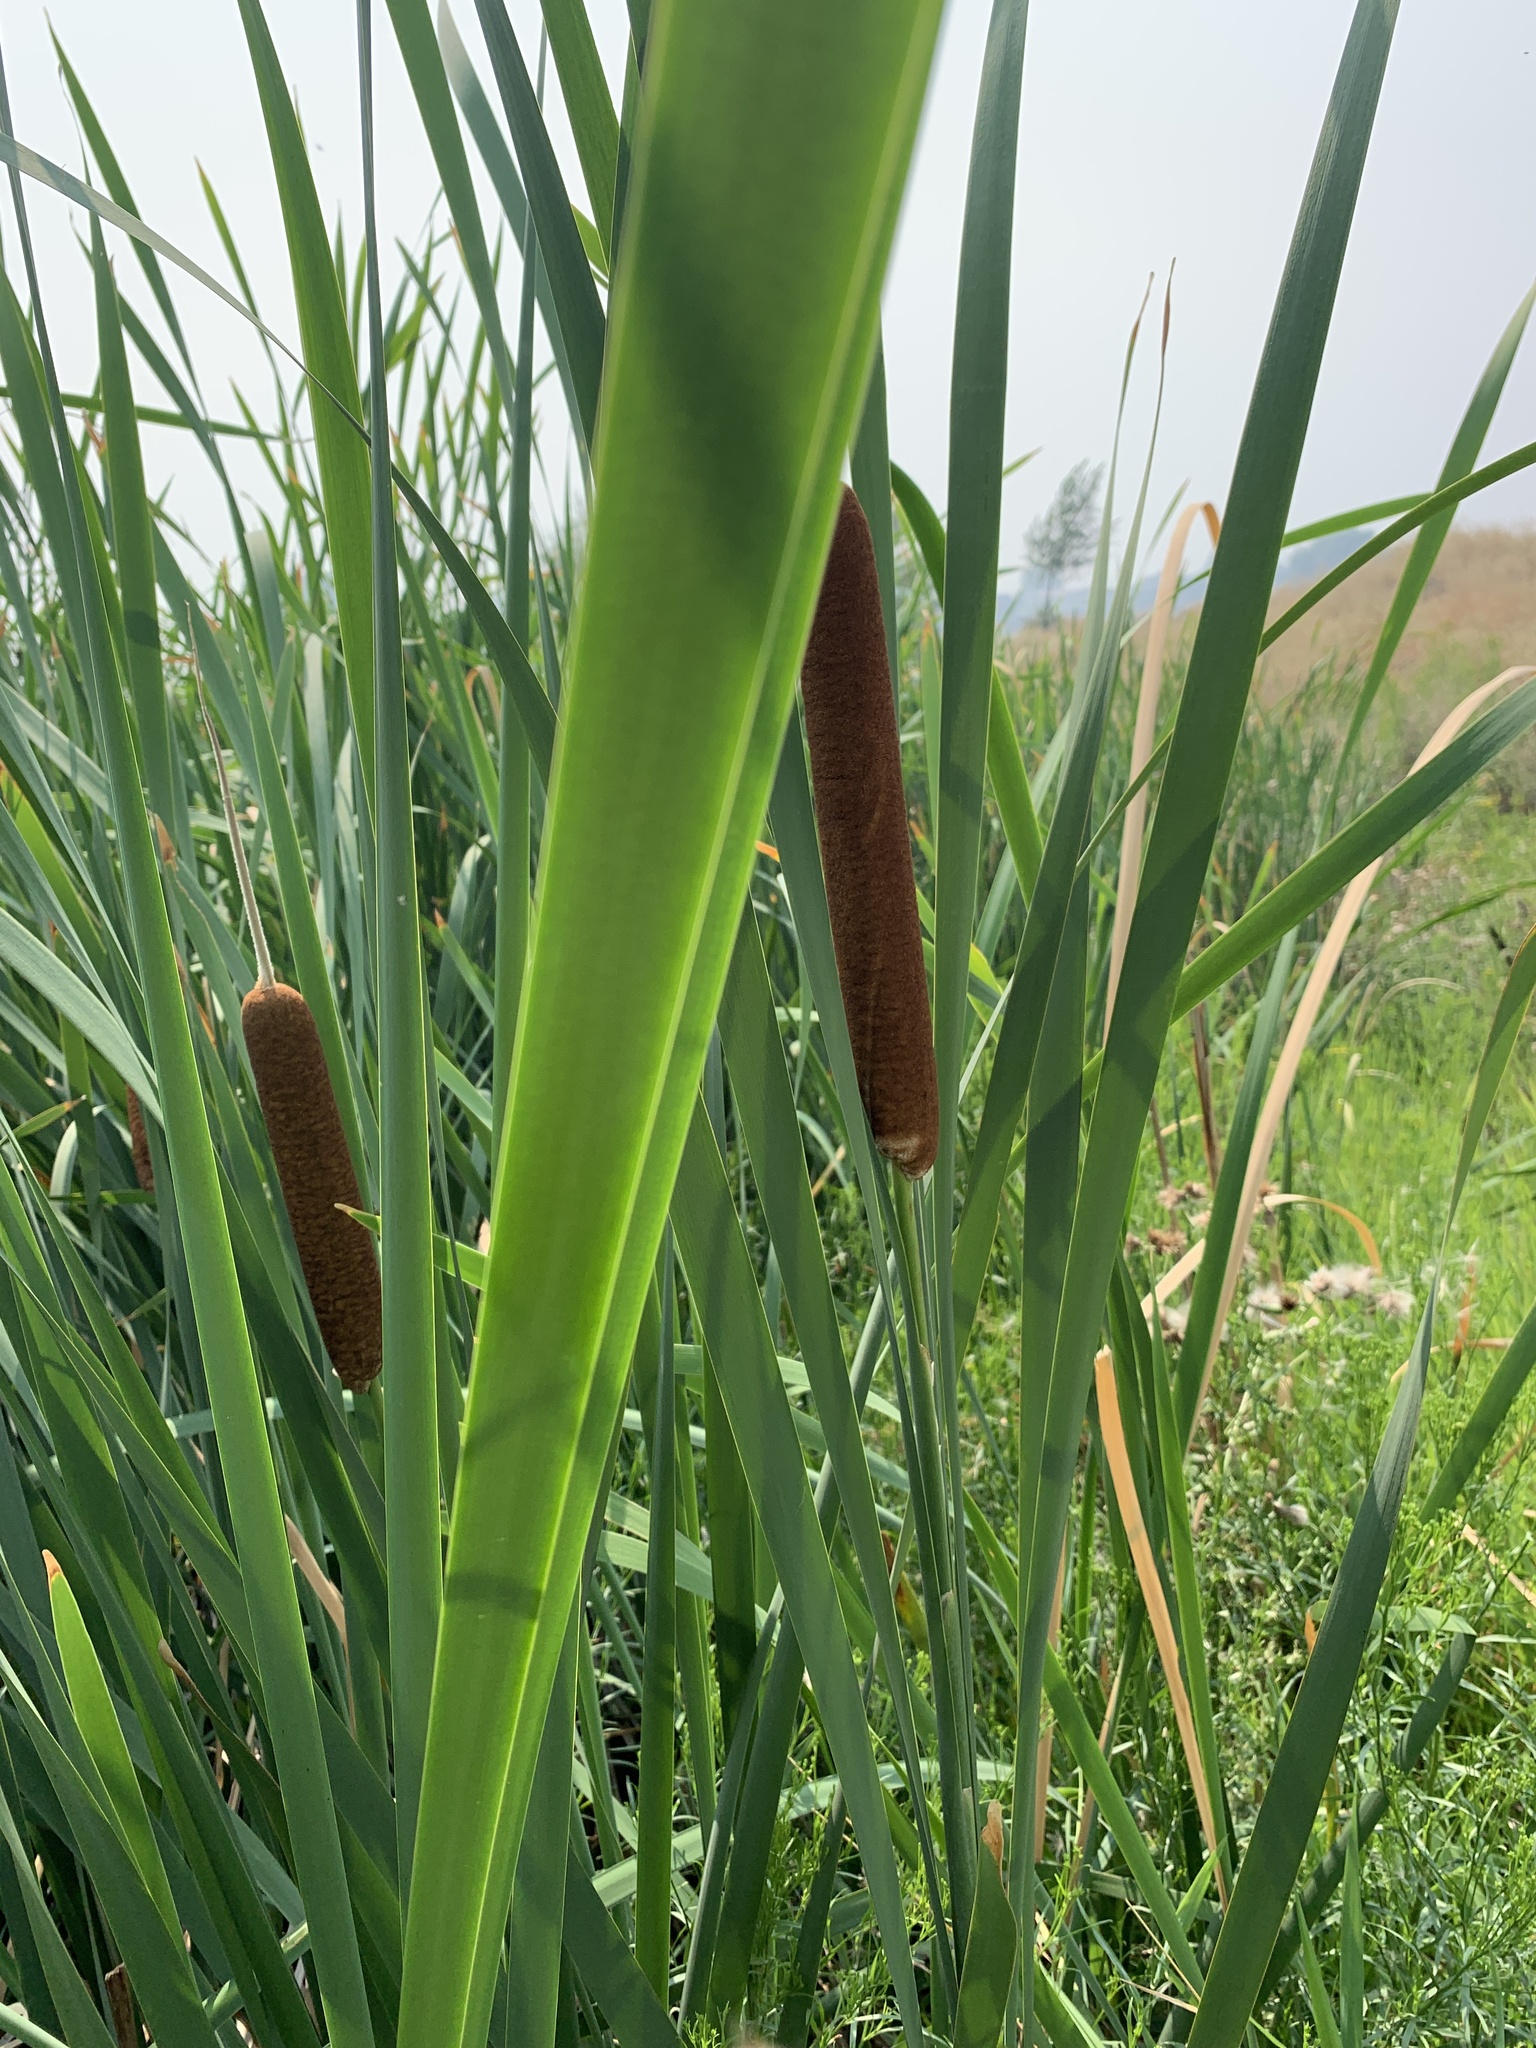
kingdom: Plantae
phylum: Tracheophyta
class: Liliopsida
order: Poales
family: Typhaceae
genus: Typha
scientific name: Typha latifolia
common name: Broadleaf cattail
